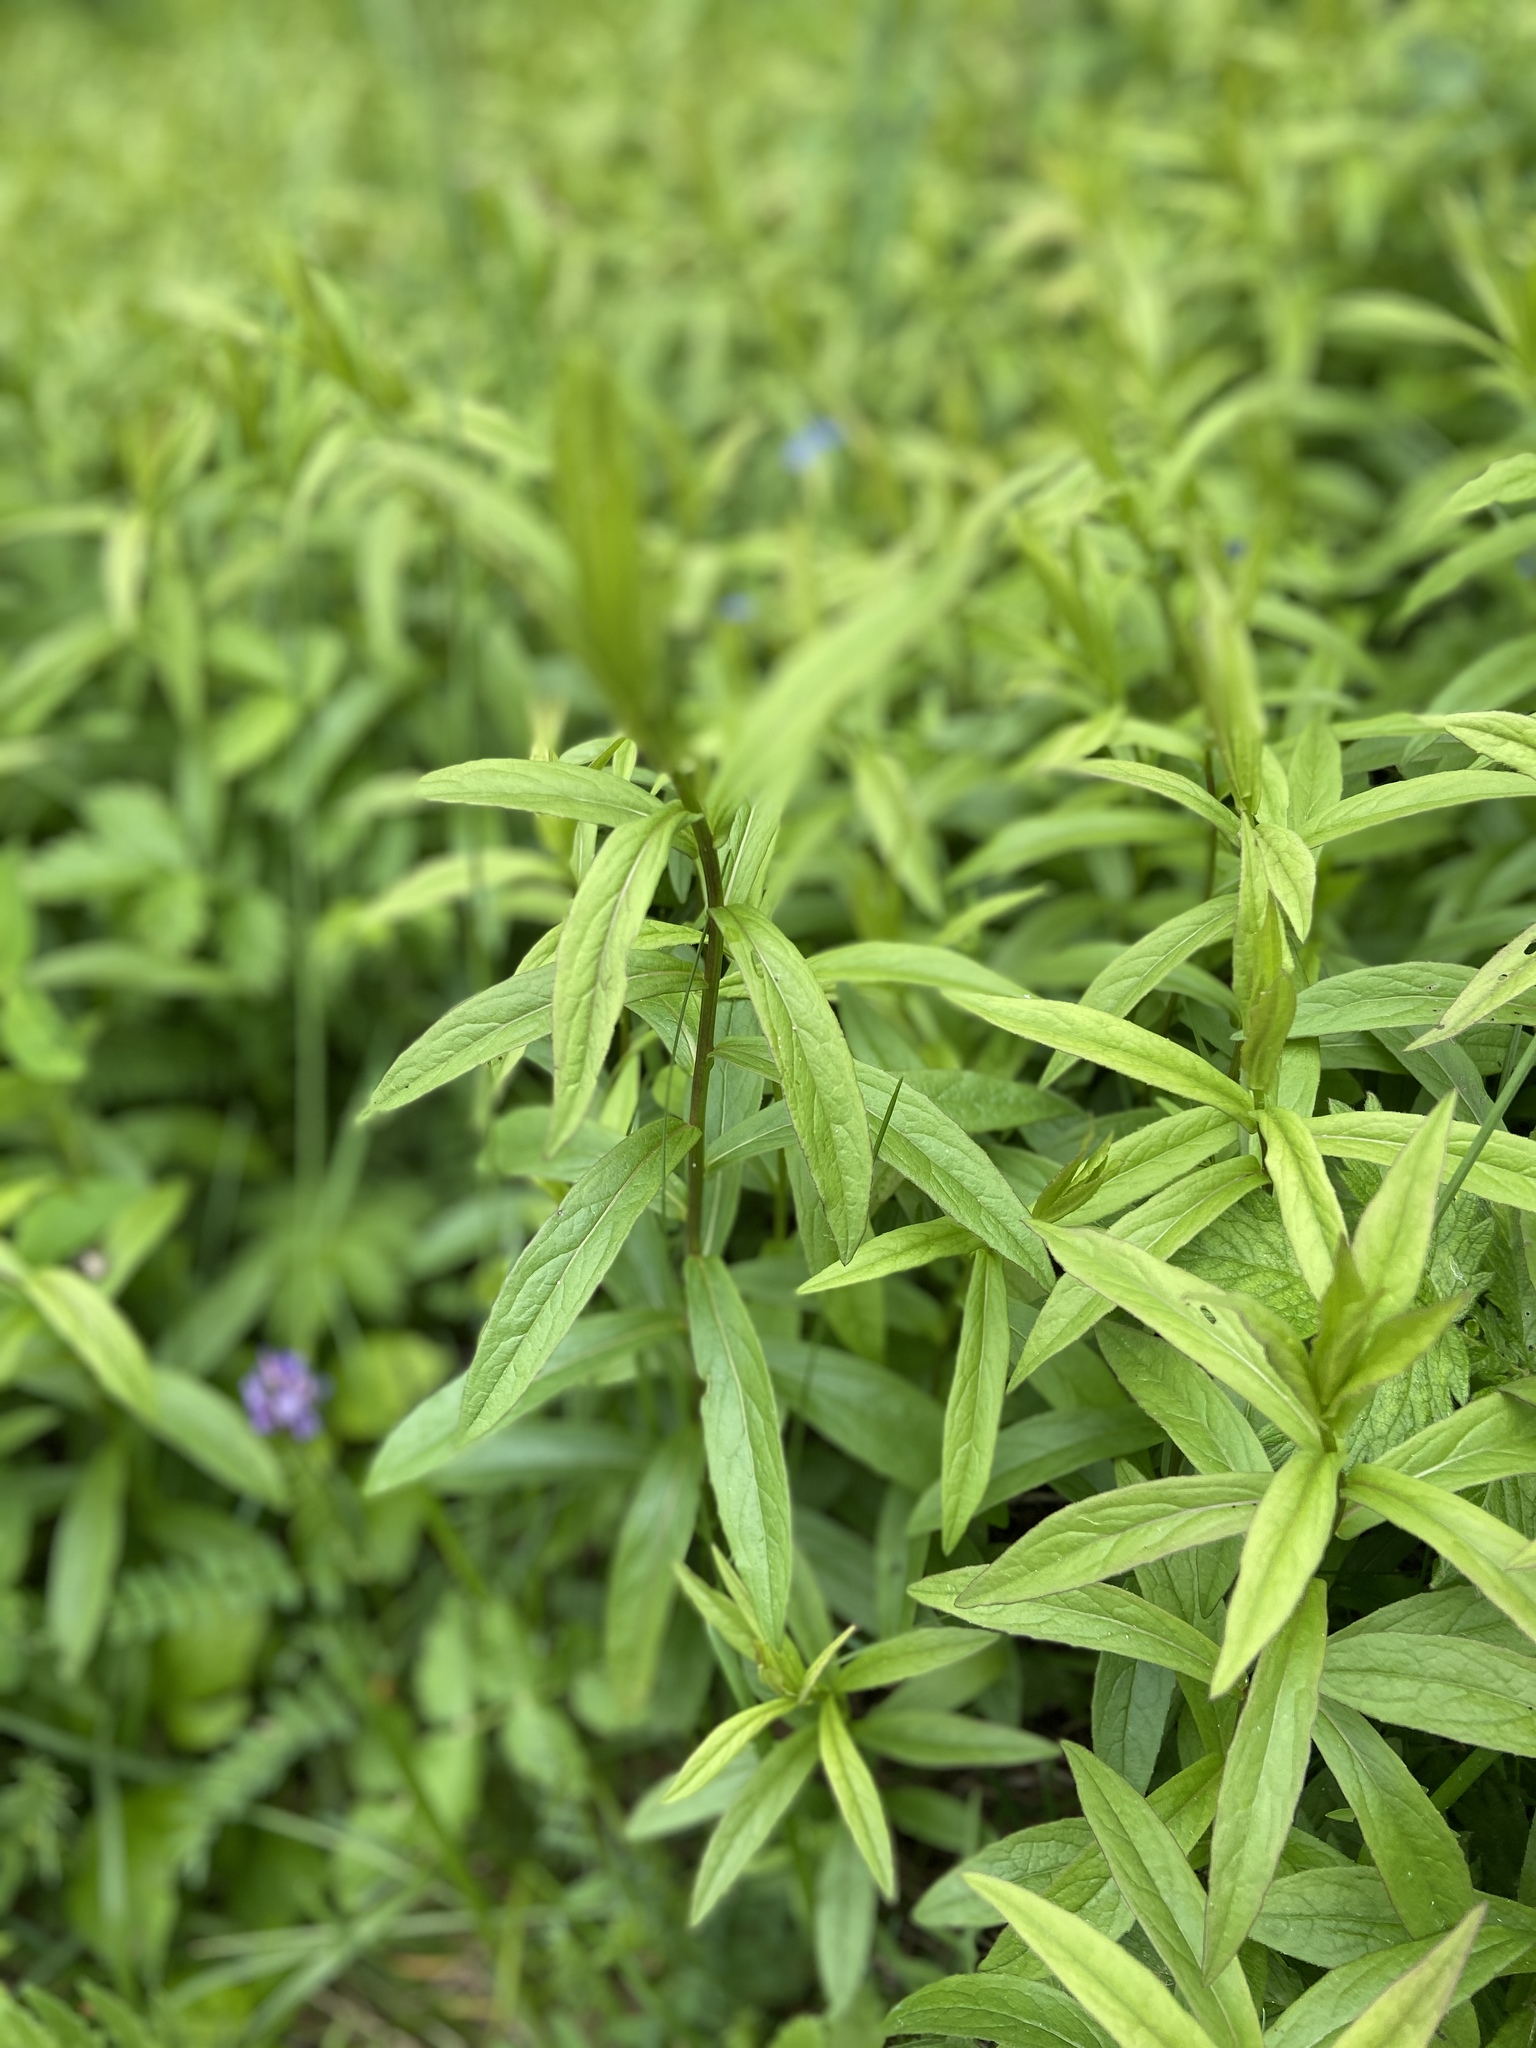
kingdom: Plantae
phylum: Tracheophyta
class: Magnoliopsida
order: Asterales
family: Asteraceae
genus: Pentanema
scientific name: Pentanema salicinum
